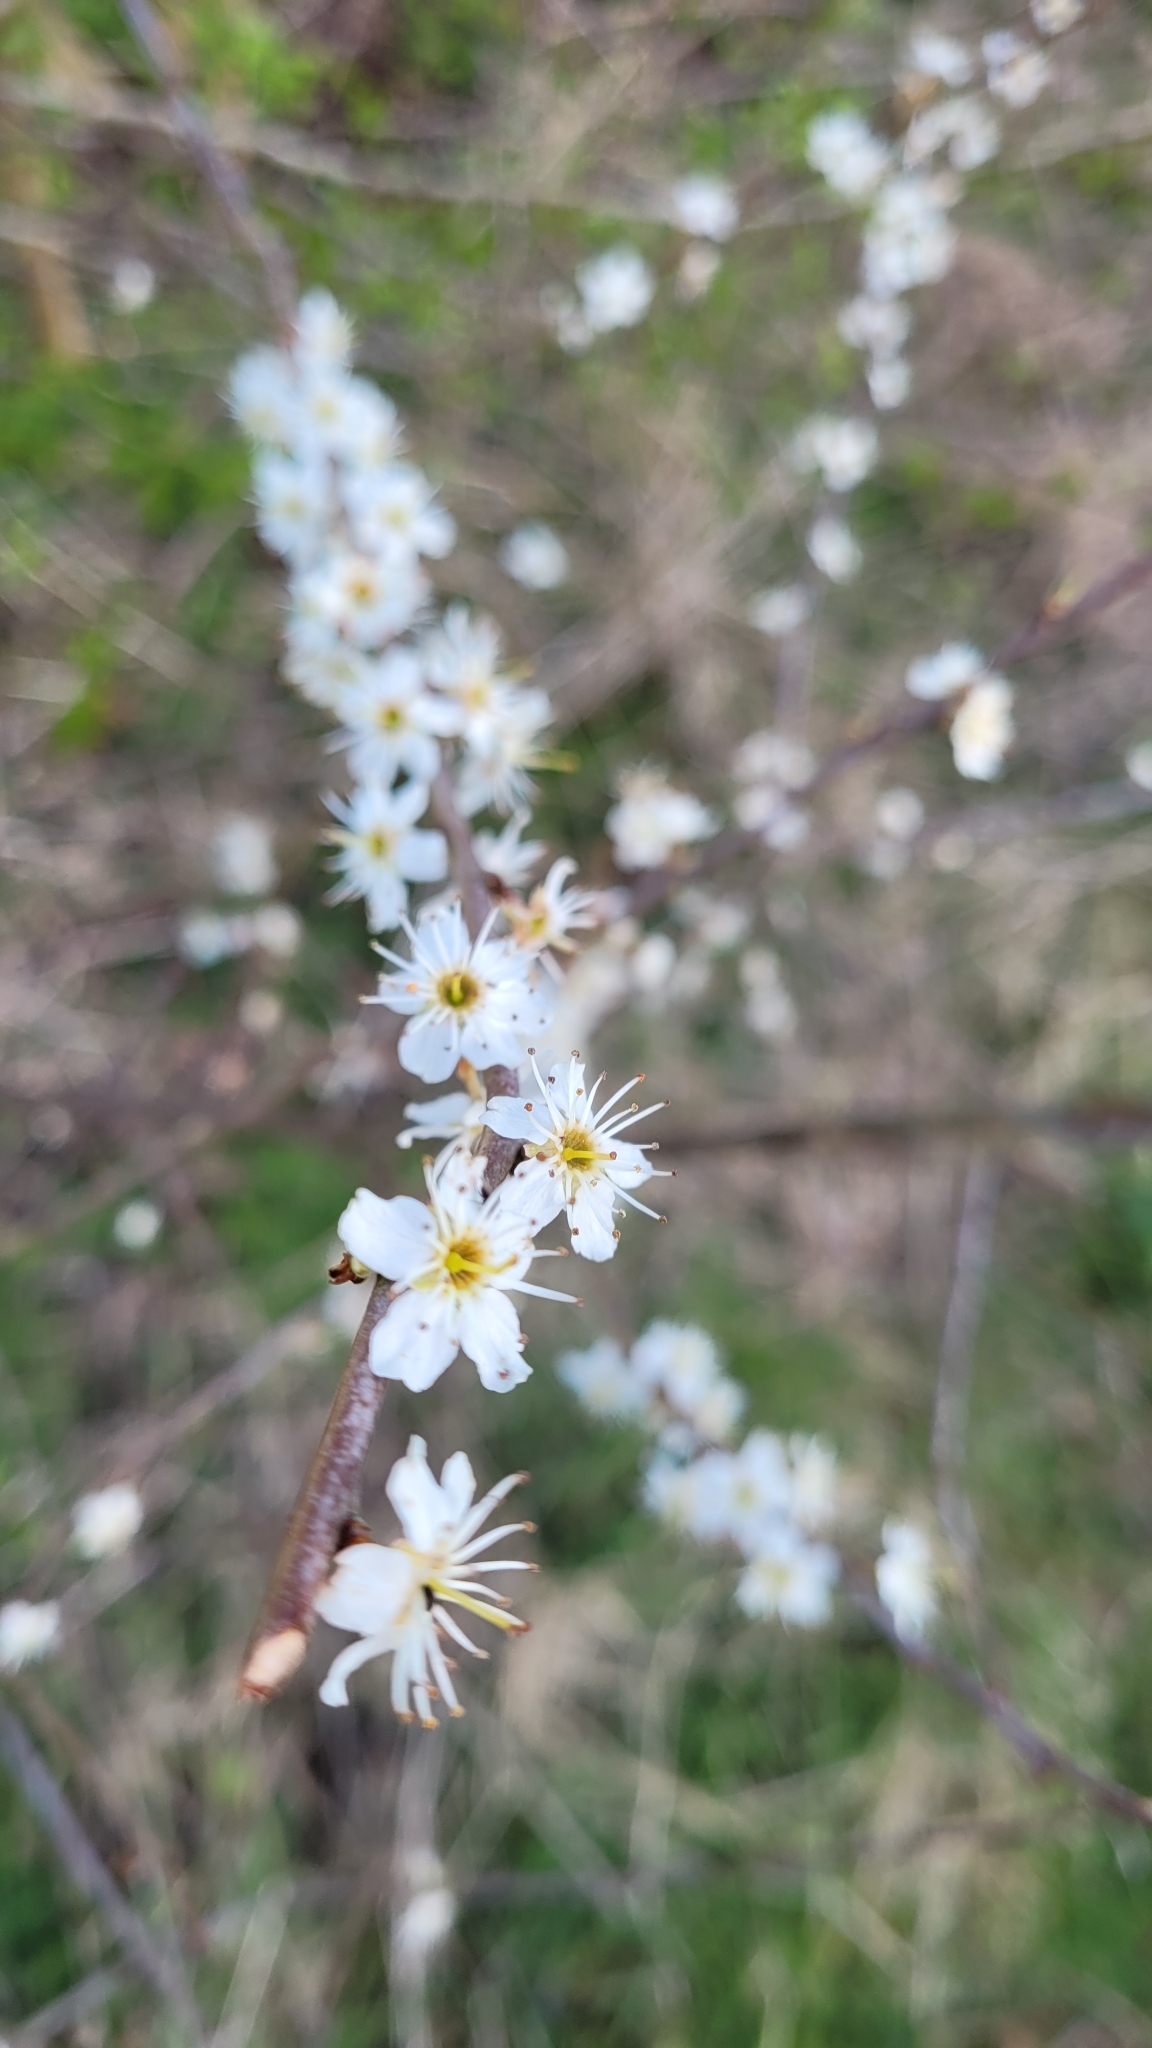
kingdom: Plantae
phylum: Tracheophyta
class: Magnoliopsida
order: Rosales
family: Rosaceae
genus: Prunus
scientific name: Prunus spinosa
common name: Blackthorn
